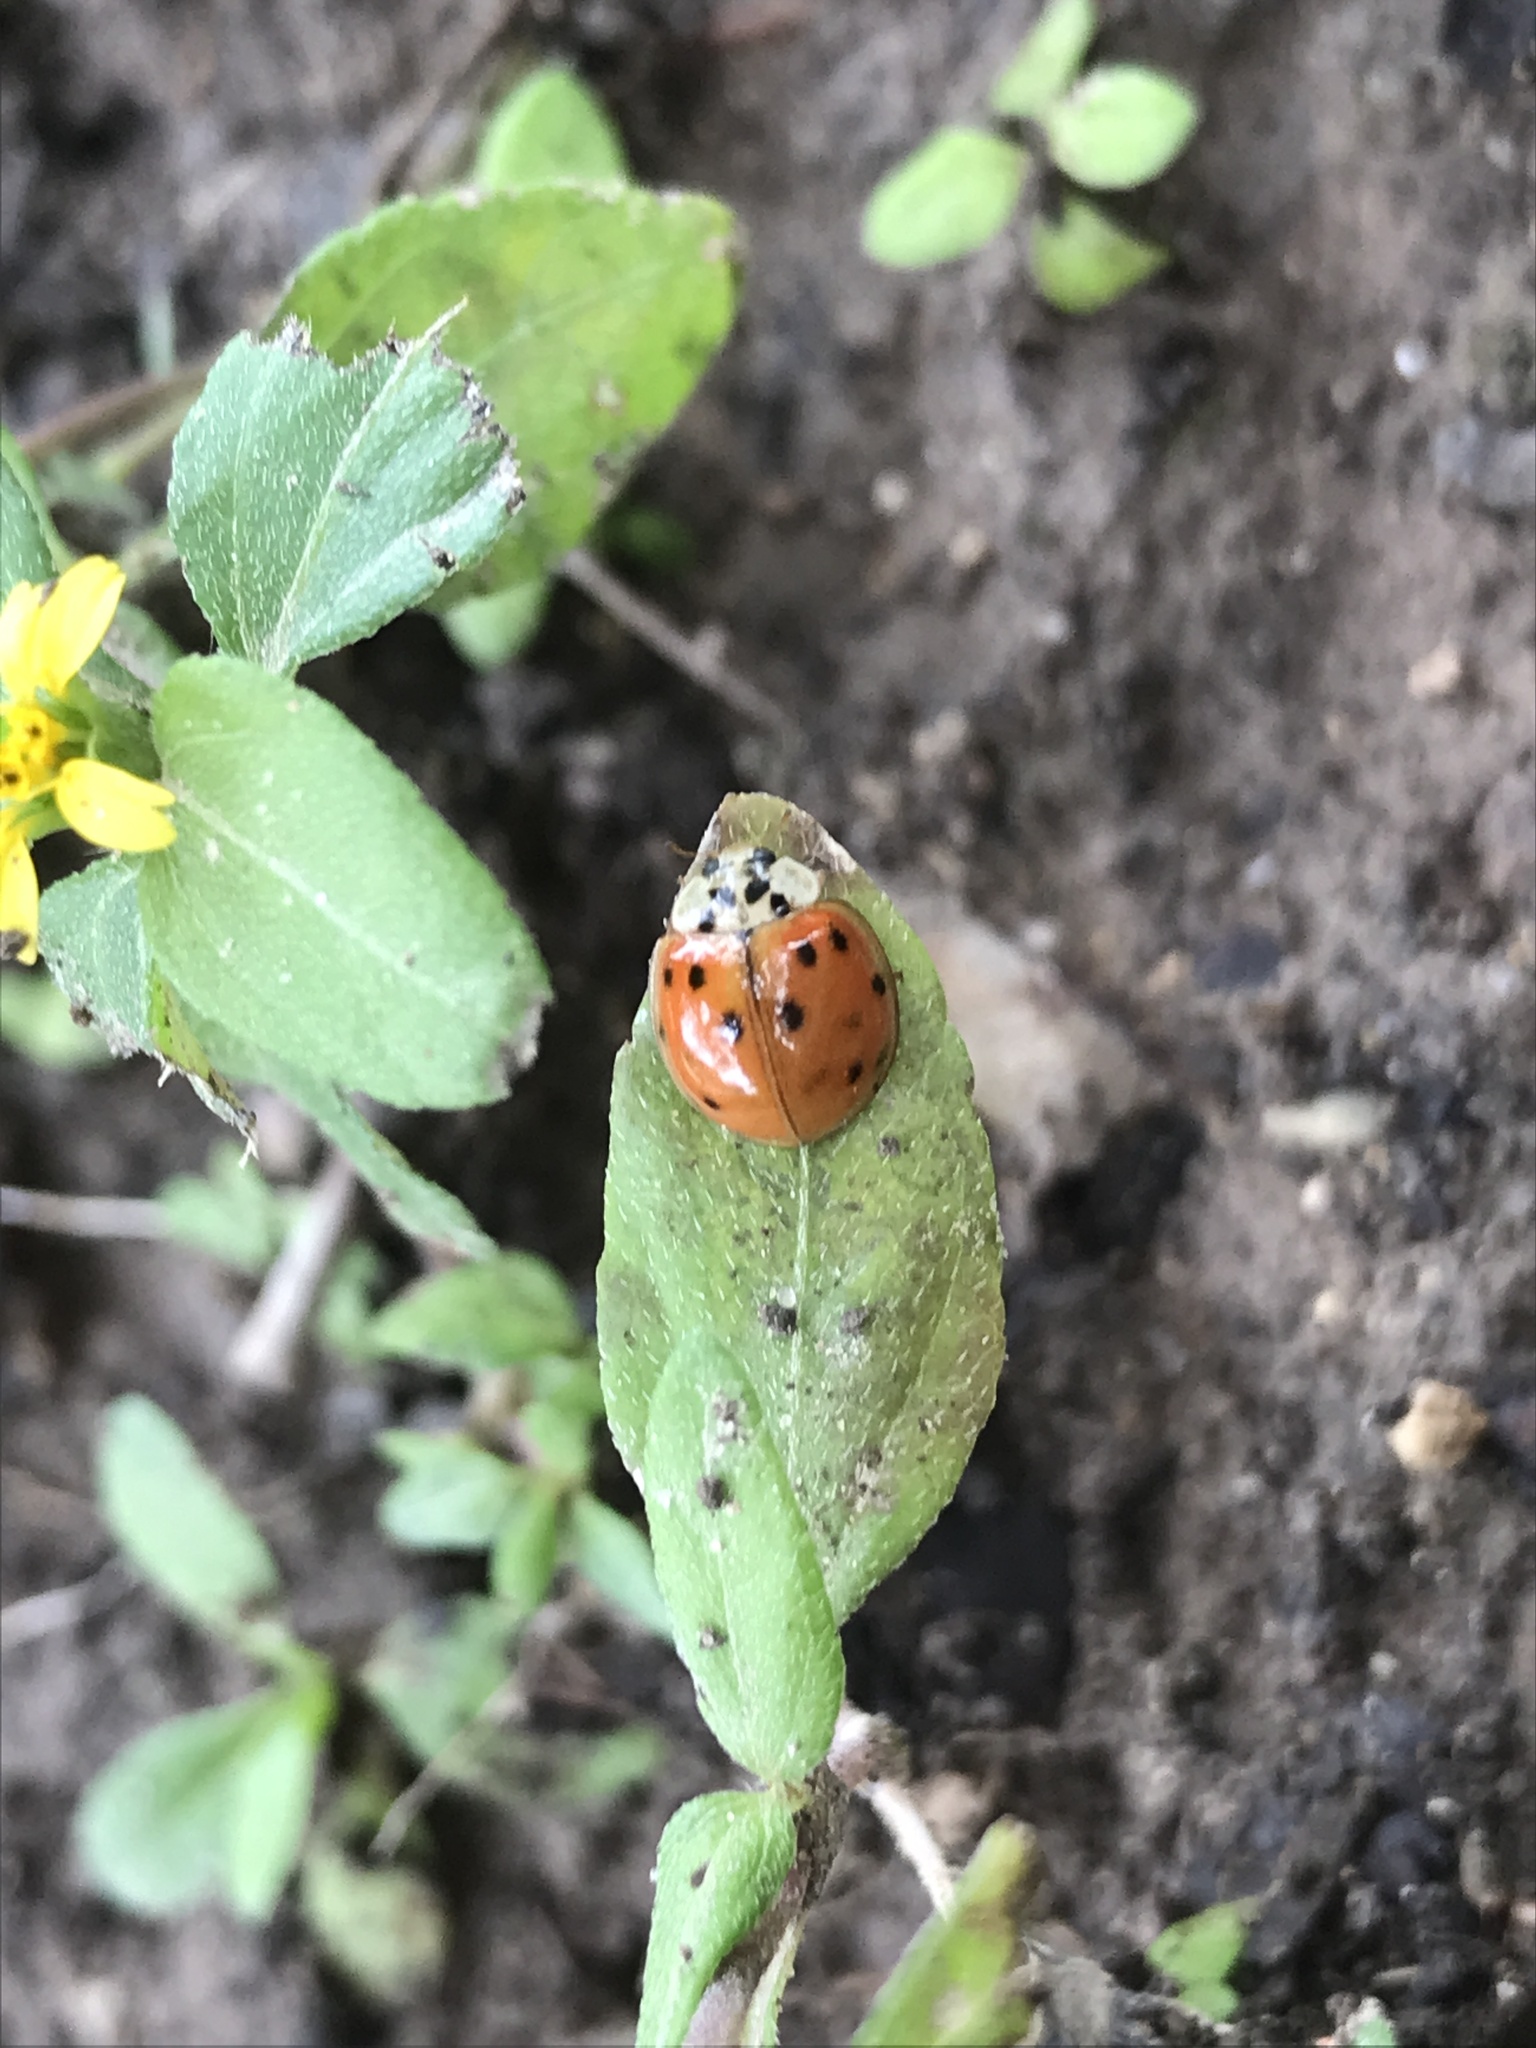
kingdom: Animalia
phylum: Arthropoda
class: Insecta
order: Coleoptera
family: Coccinellidae
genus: Harmonia
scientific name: Harmonia axyridis
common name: Harlequin ladybird
